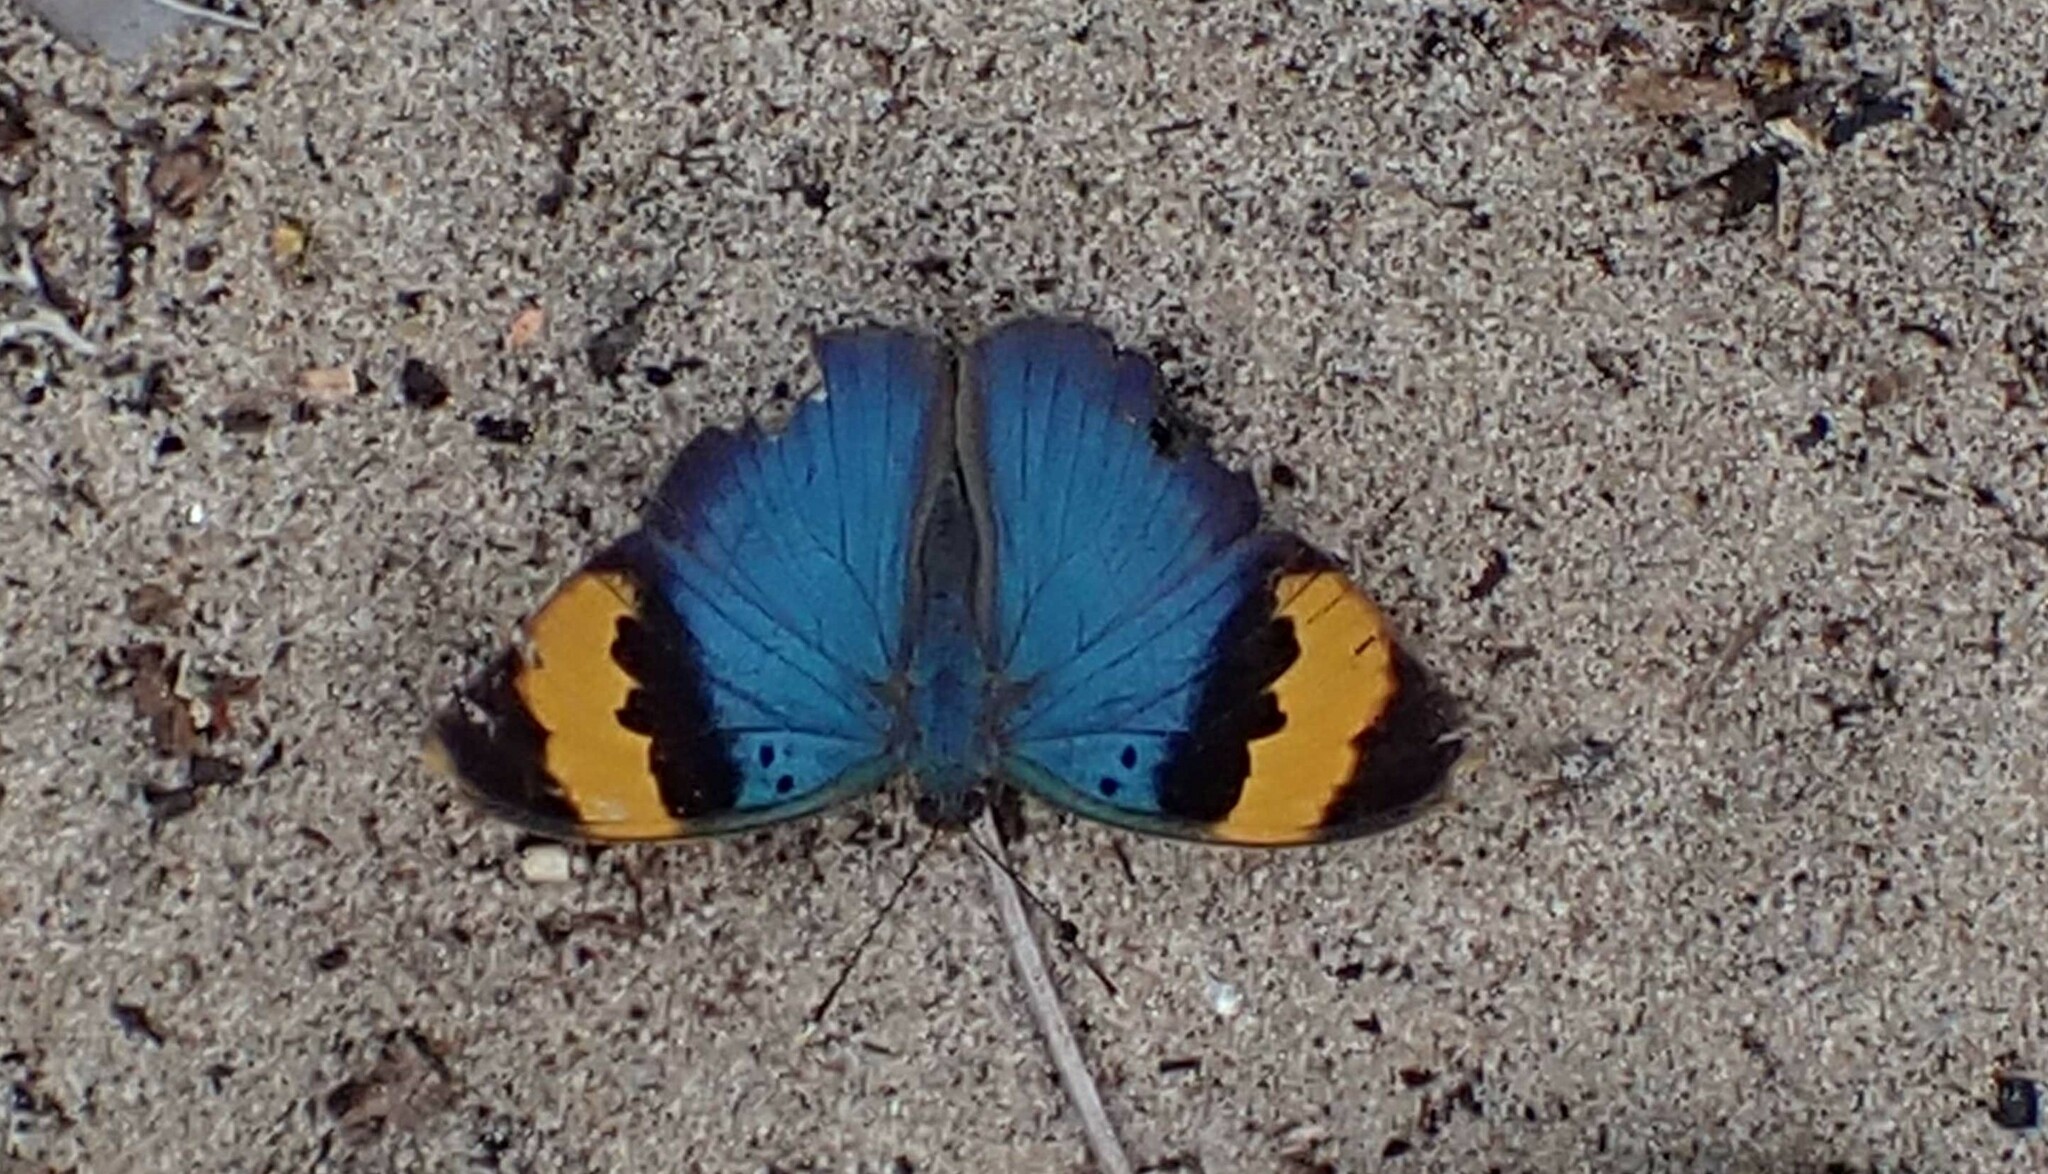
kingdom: Animalia
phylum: Arthropoda
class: Insecta
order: Lepidoptera
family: Nymphalidae
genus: Euphaedra
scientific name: Euphaedra neophron
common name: Gold-banded forester
